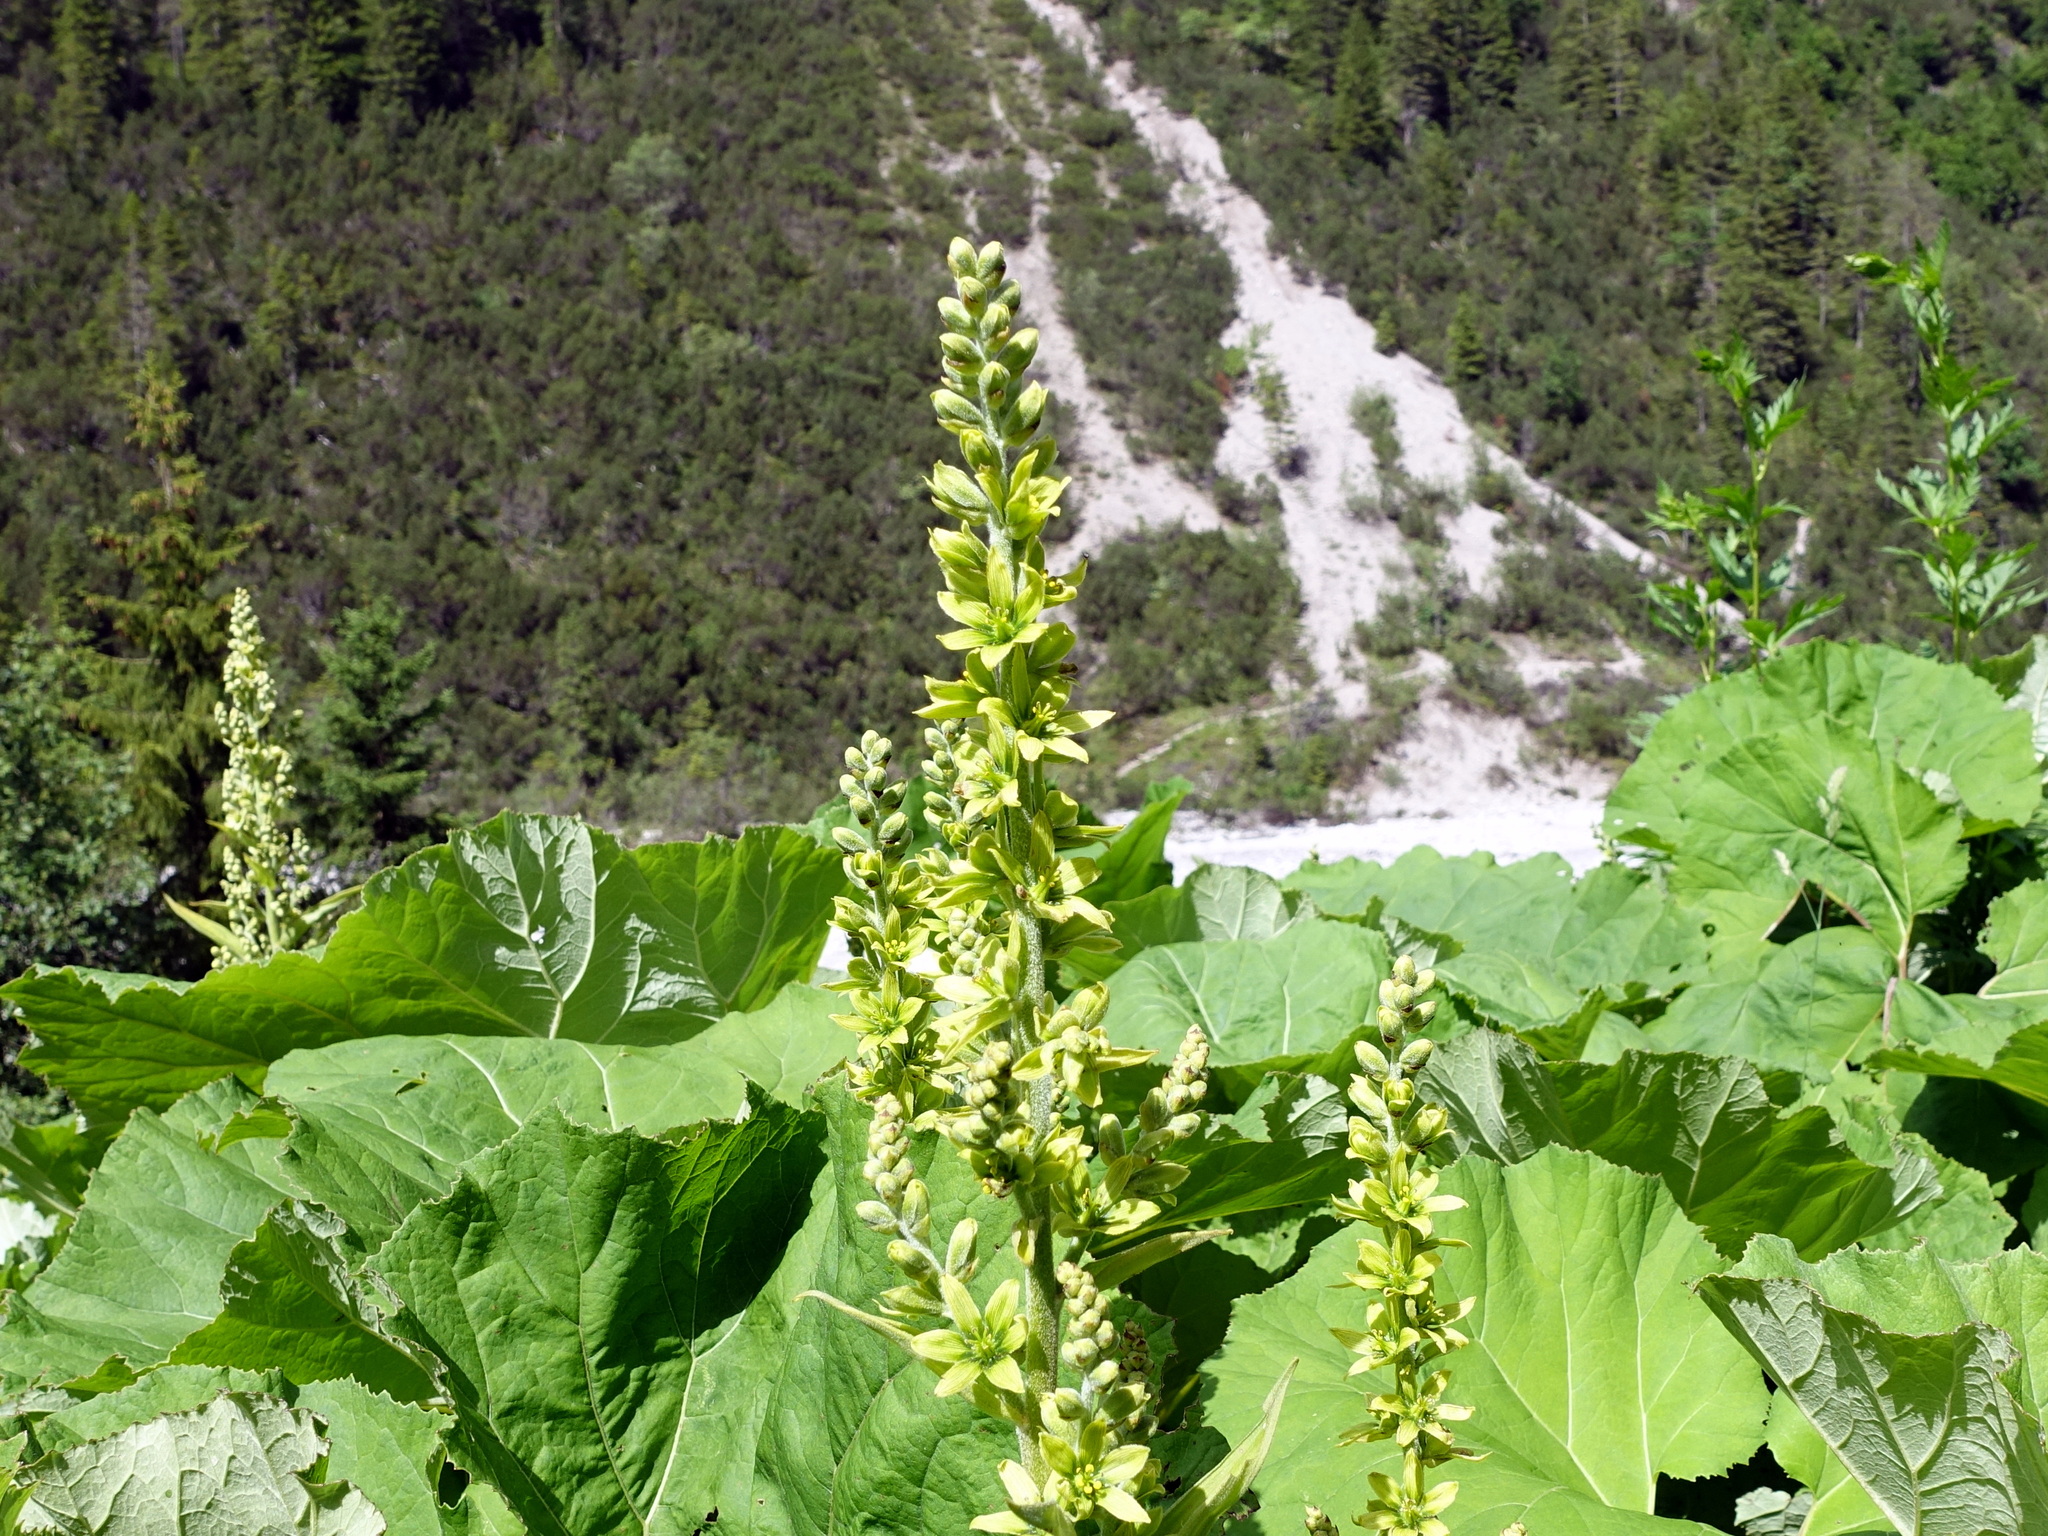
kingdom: Plantae
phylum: Tracheophyta
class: Liliopsida
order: Liliales
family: Melanthiaceae
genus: Veratrum
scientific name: Veratrum lobelianum
